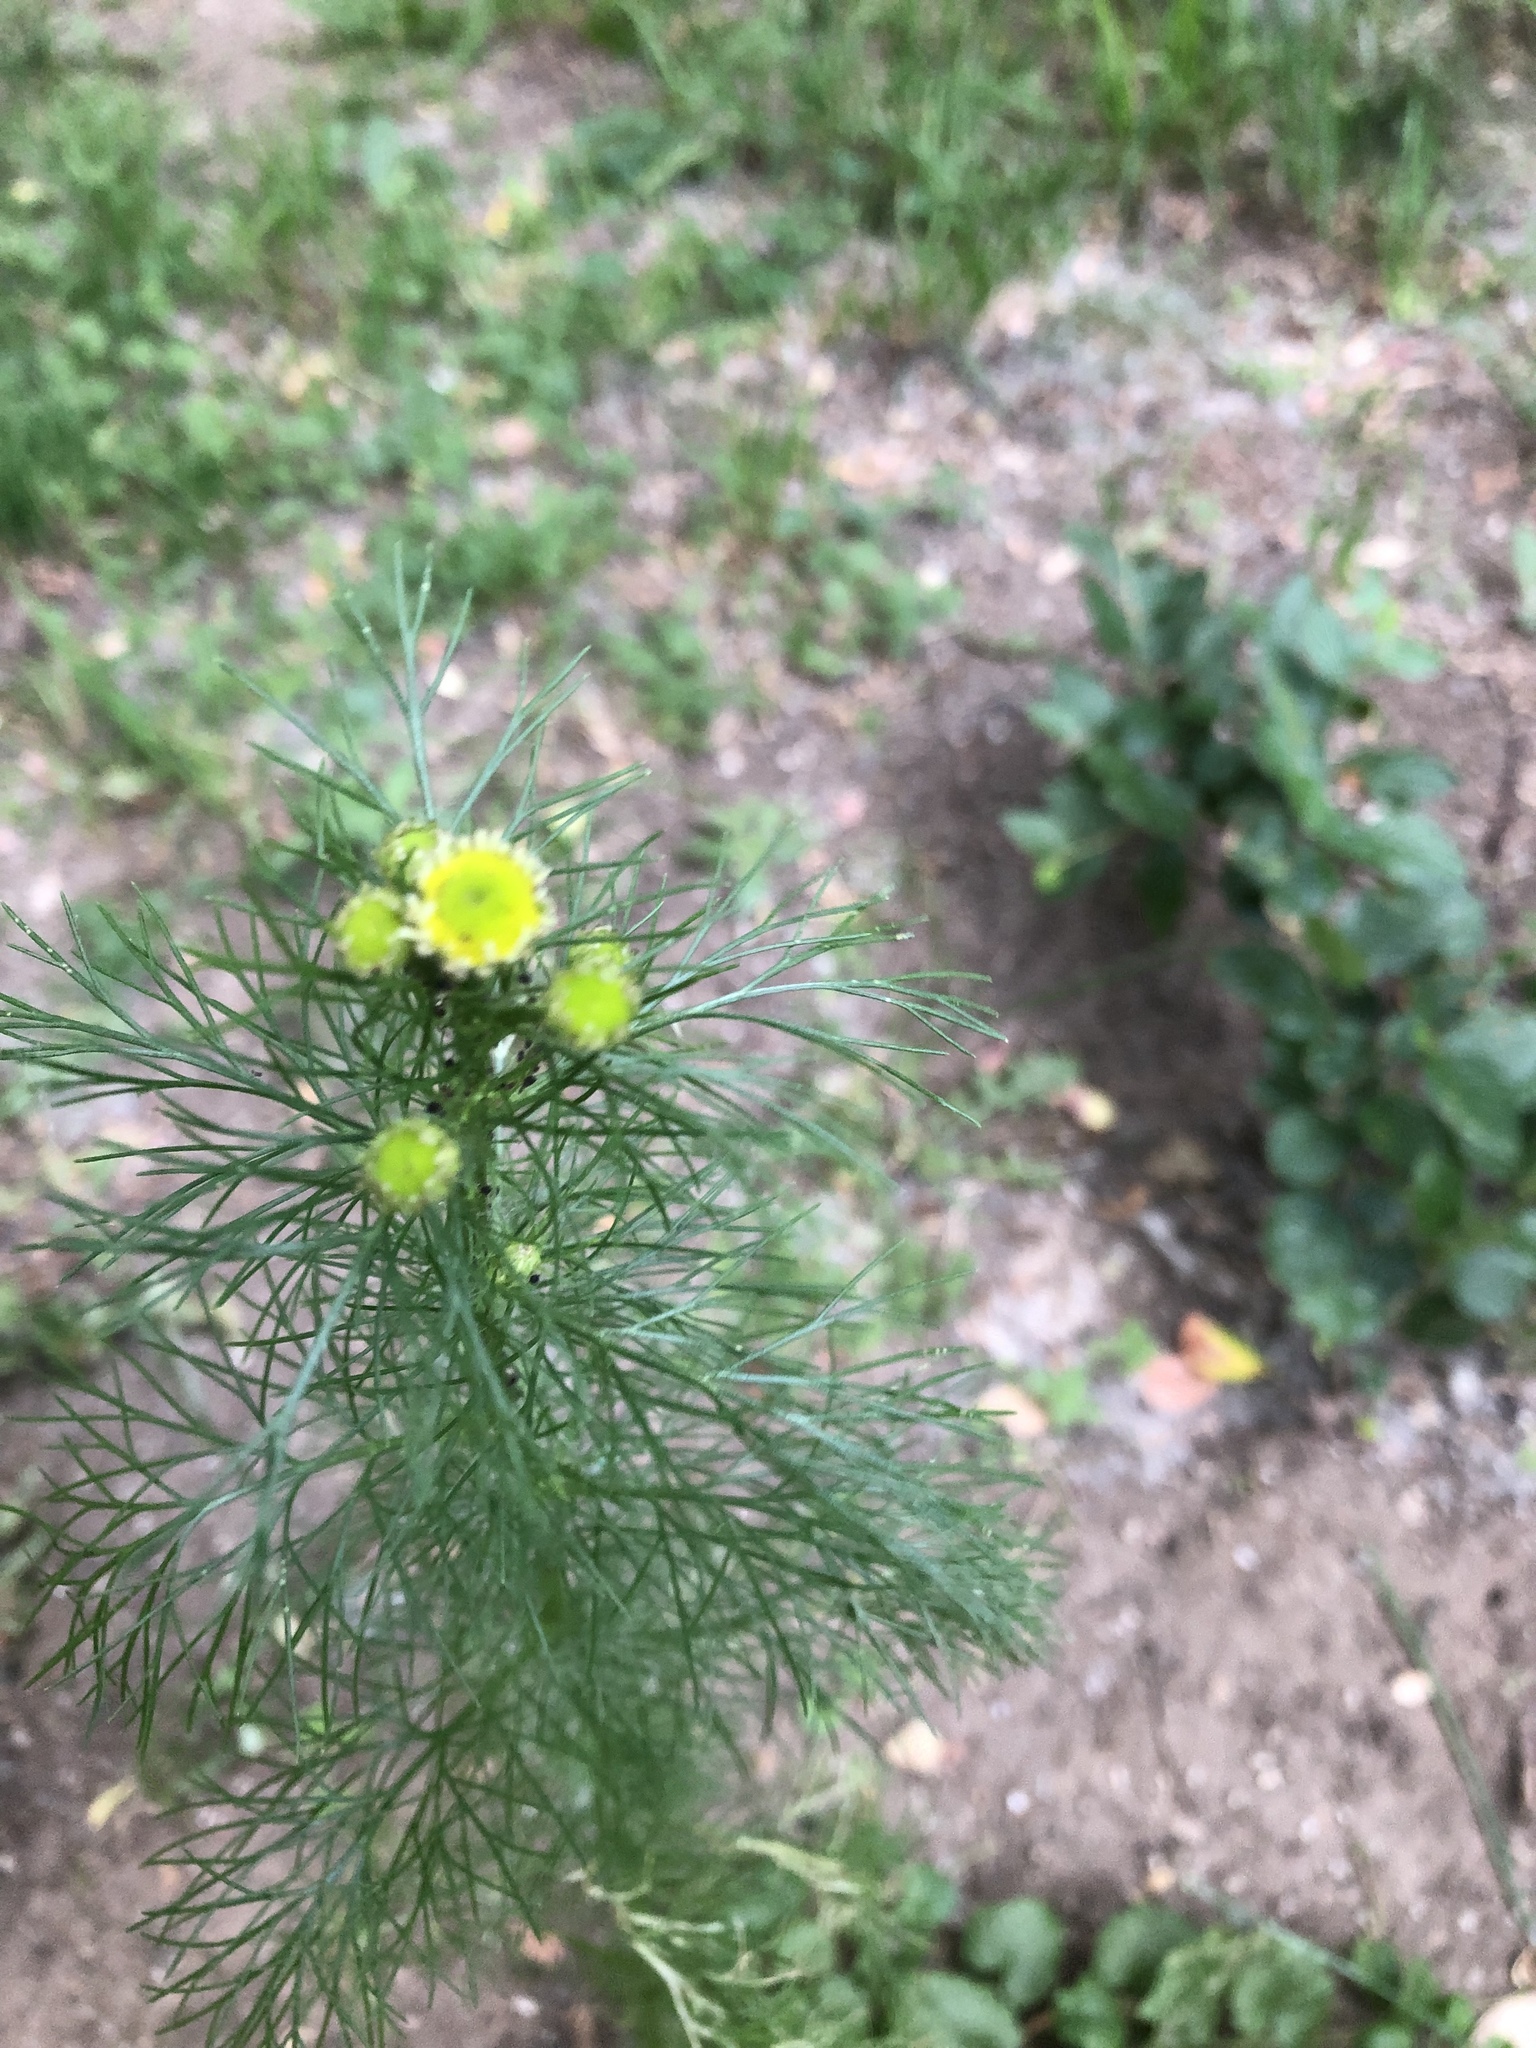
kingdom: Plantae
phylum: Tracheophyta
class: Magnoliopsida
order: Asterales
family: Asteraceae
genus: Tripleurospermum
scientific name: Tripleurospermum inodorum
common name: Scentless mayweed
